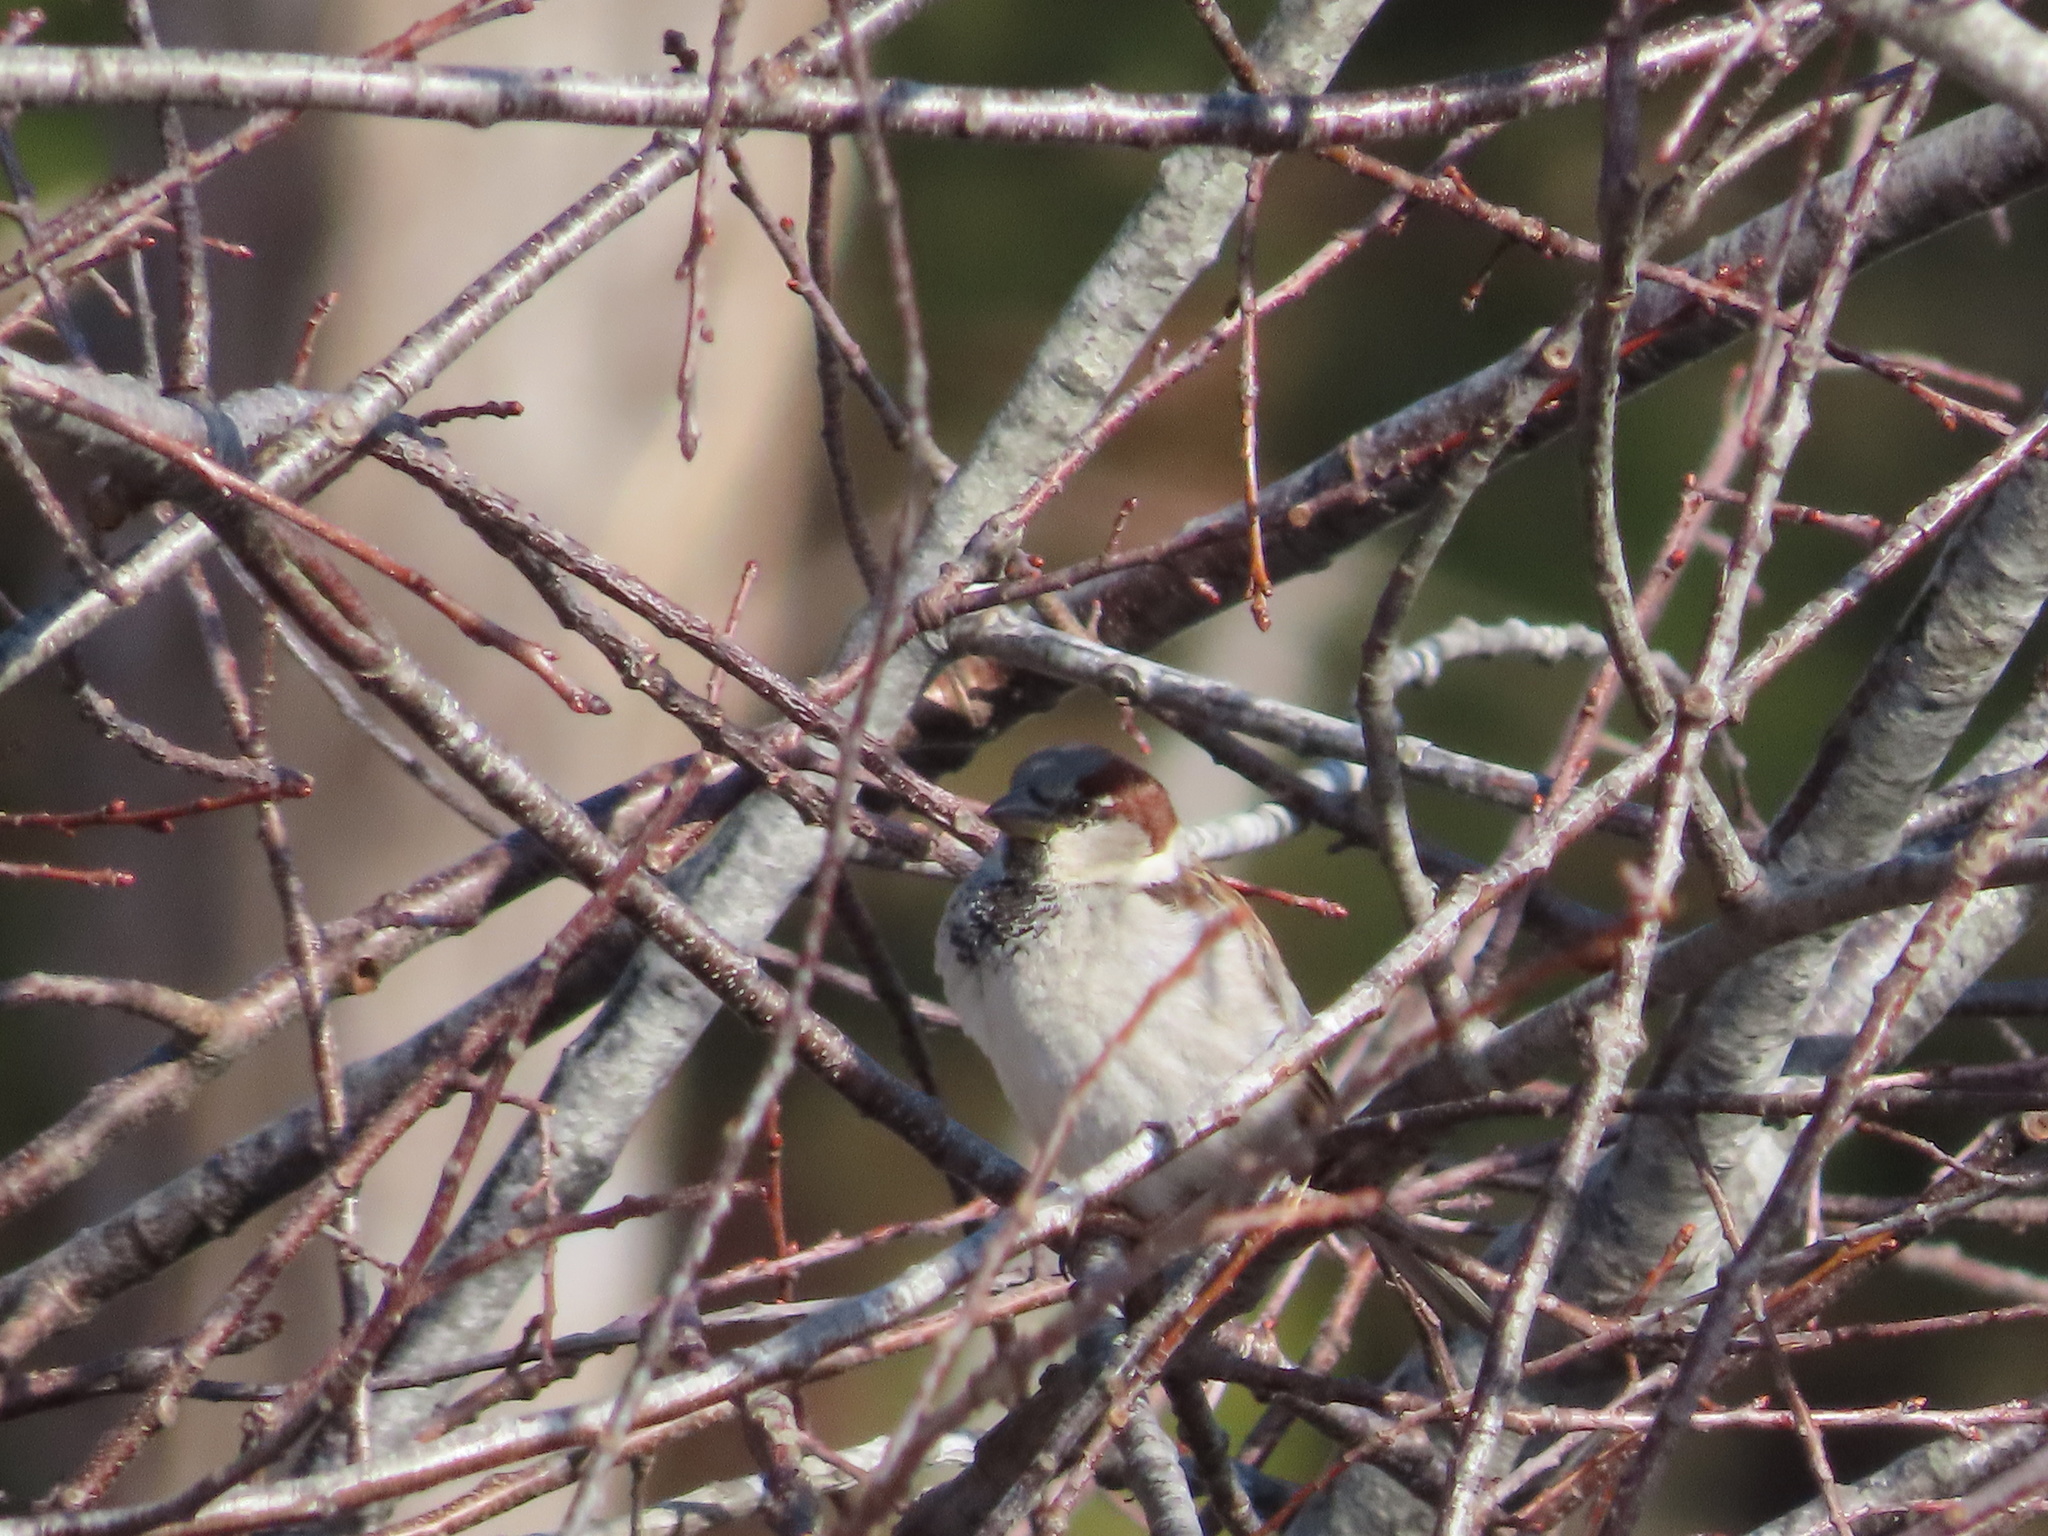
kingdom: Animalia
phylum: Chordata
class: Aves
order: Passeriformes
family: Passeridae
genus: Passer
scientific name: Passer domesticus
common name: House sparrow
